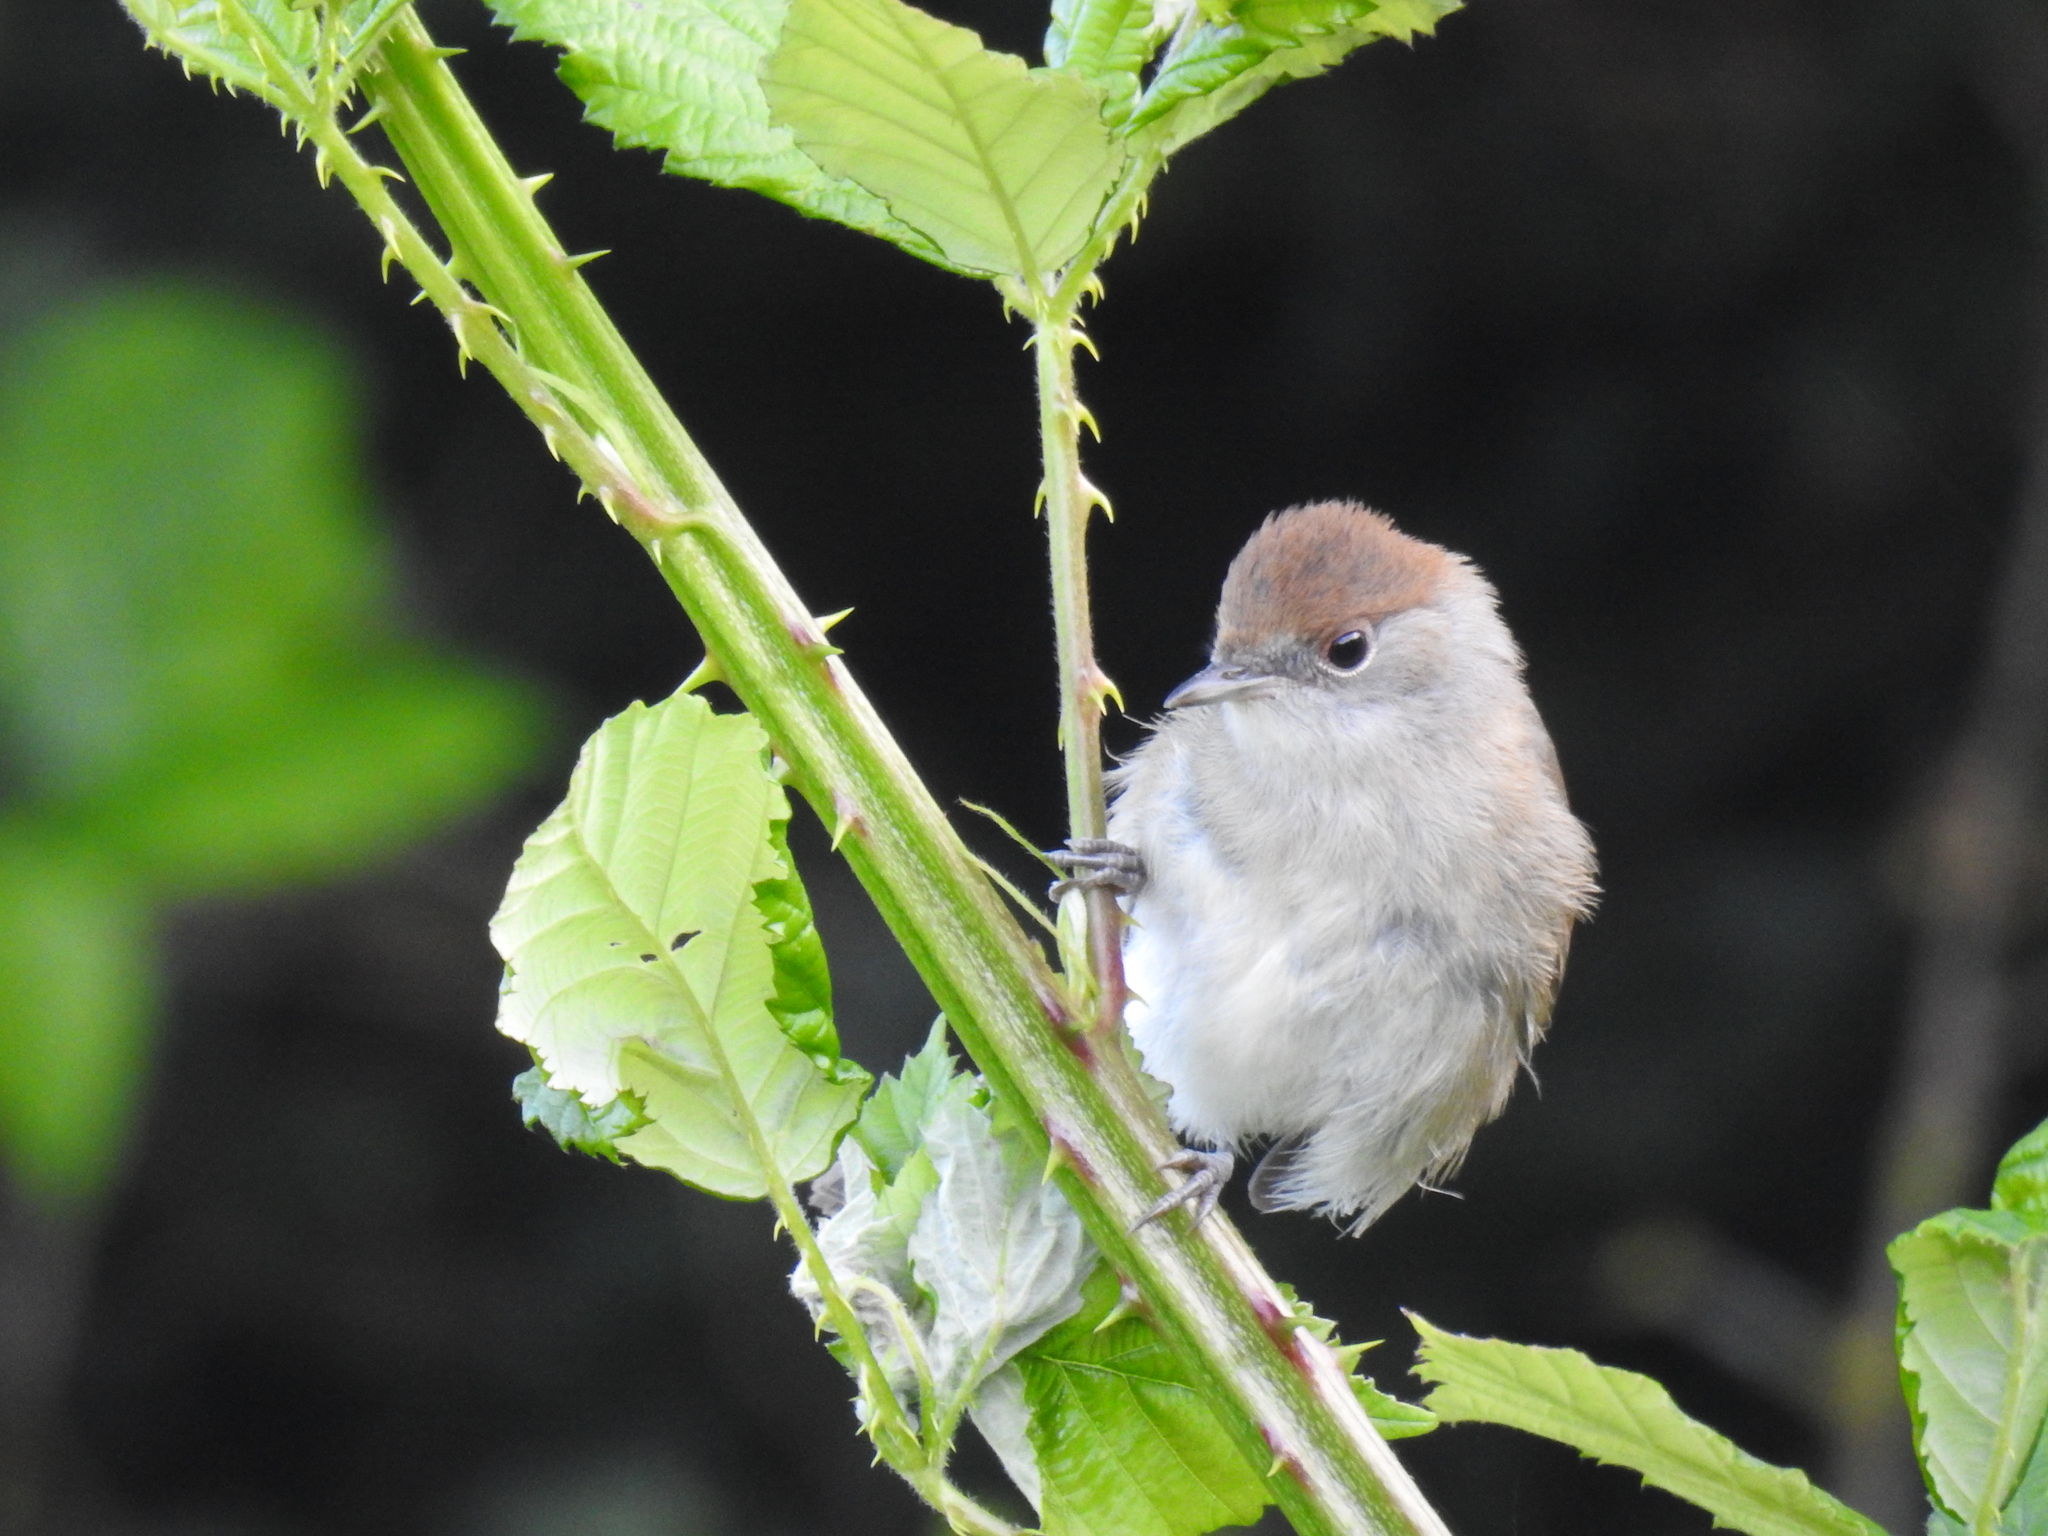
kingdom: Animalia
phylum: Chordata
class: Aves
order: Passeriformes
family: Sylviidae
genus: Sylvia
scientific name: Sylvia atricapilla
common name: Eurasian blackcap
